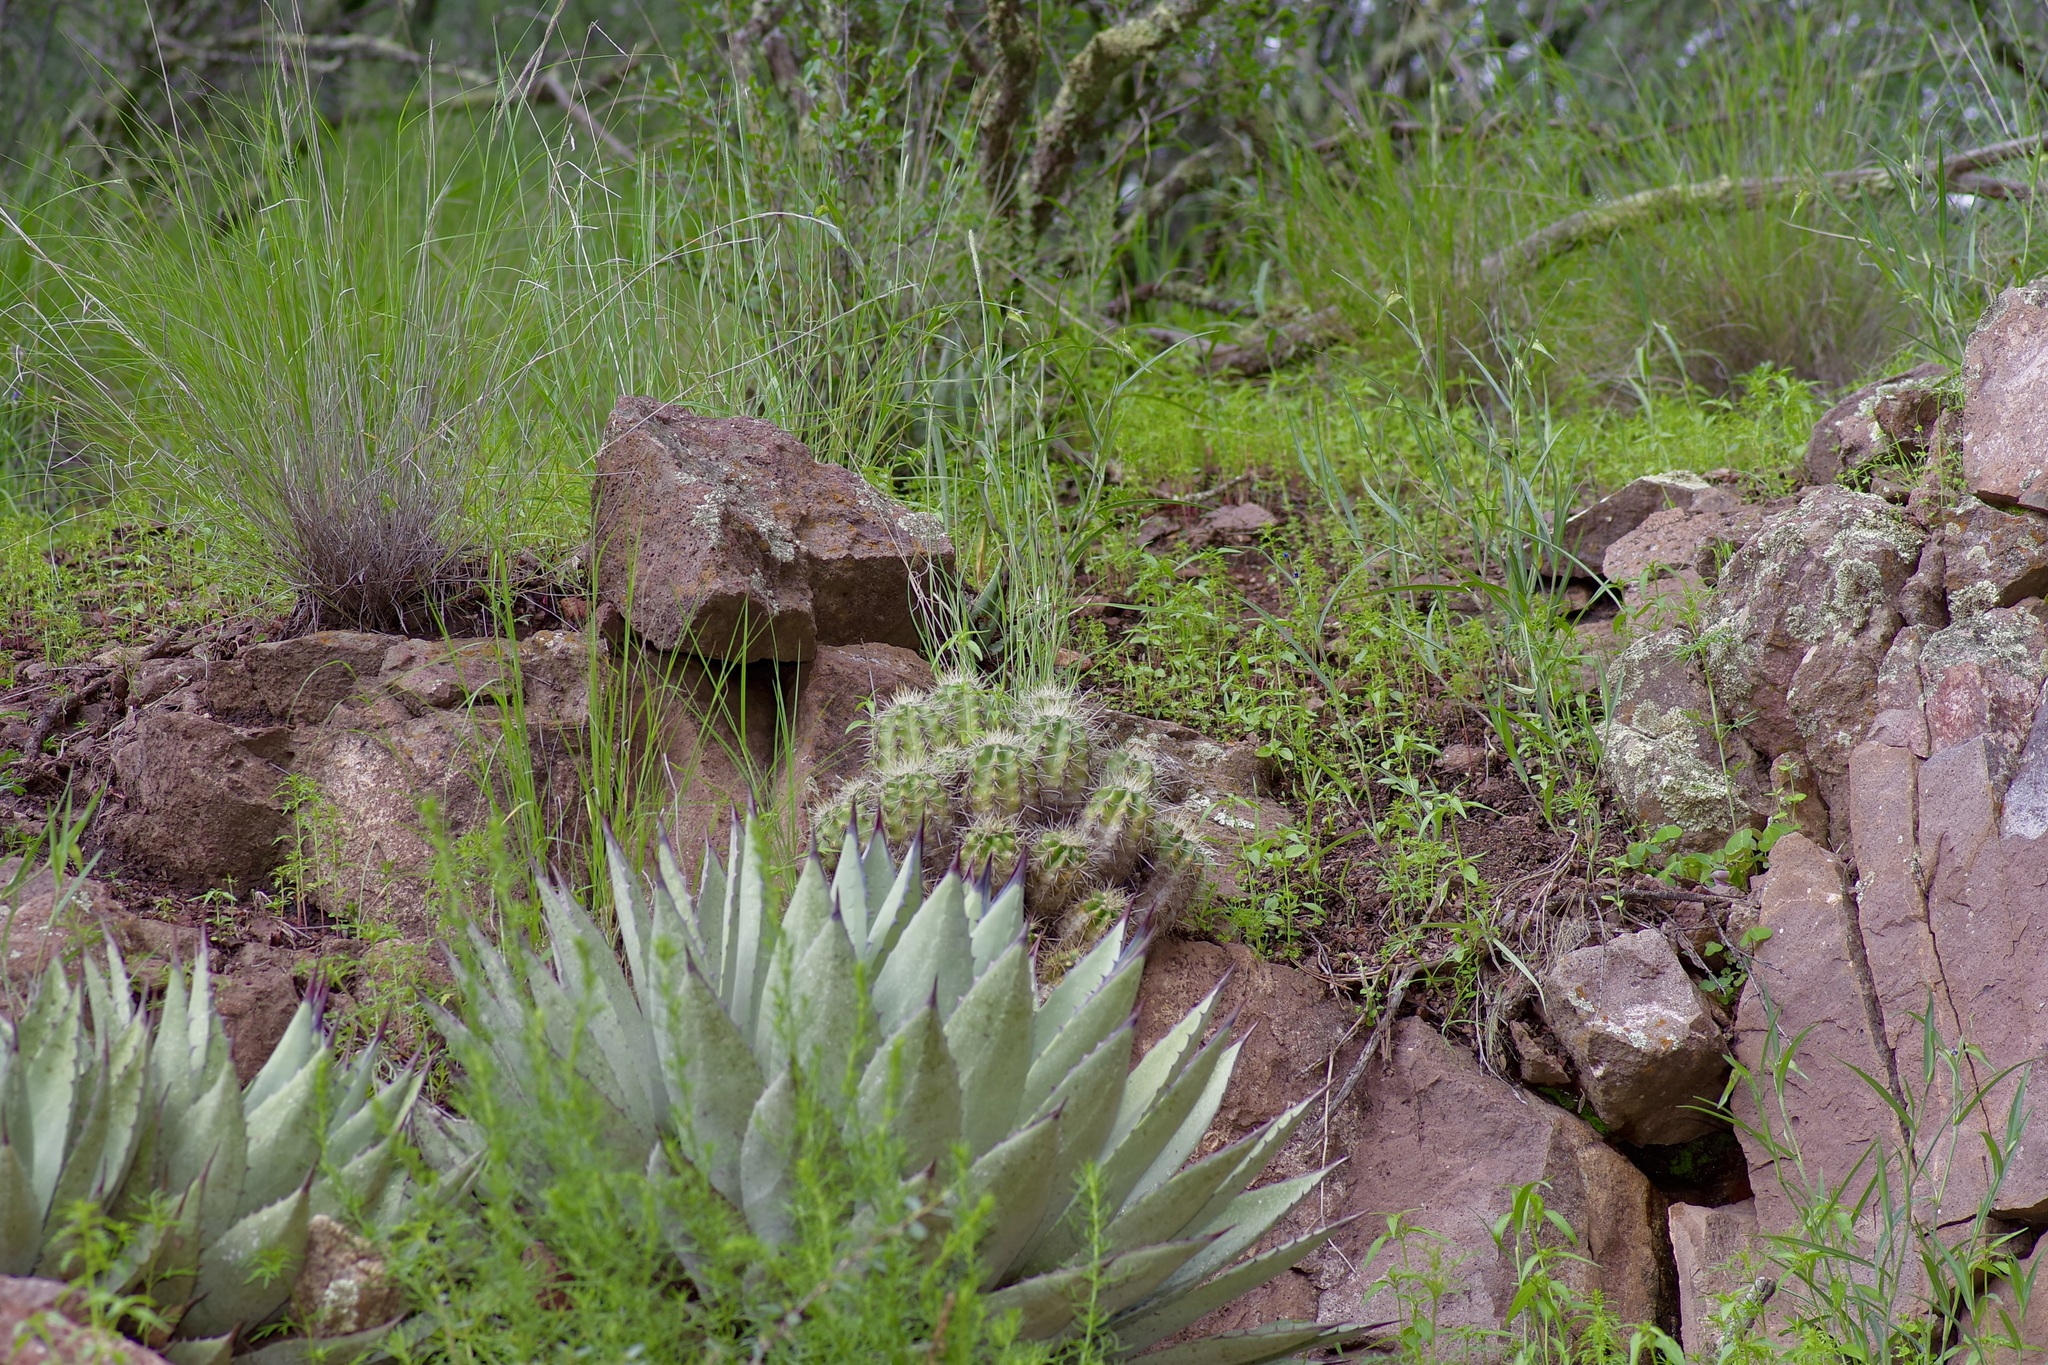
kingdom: Plantae
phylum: Tracheophyta
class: Magnoliopsida
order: Caryophyllales
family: Cactaceae
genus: Echinocereus
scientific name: Echinocereus arizonicus
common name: Arizona hedgehog cactus
